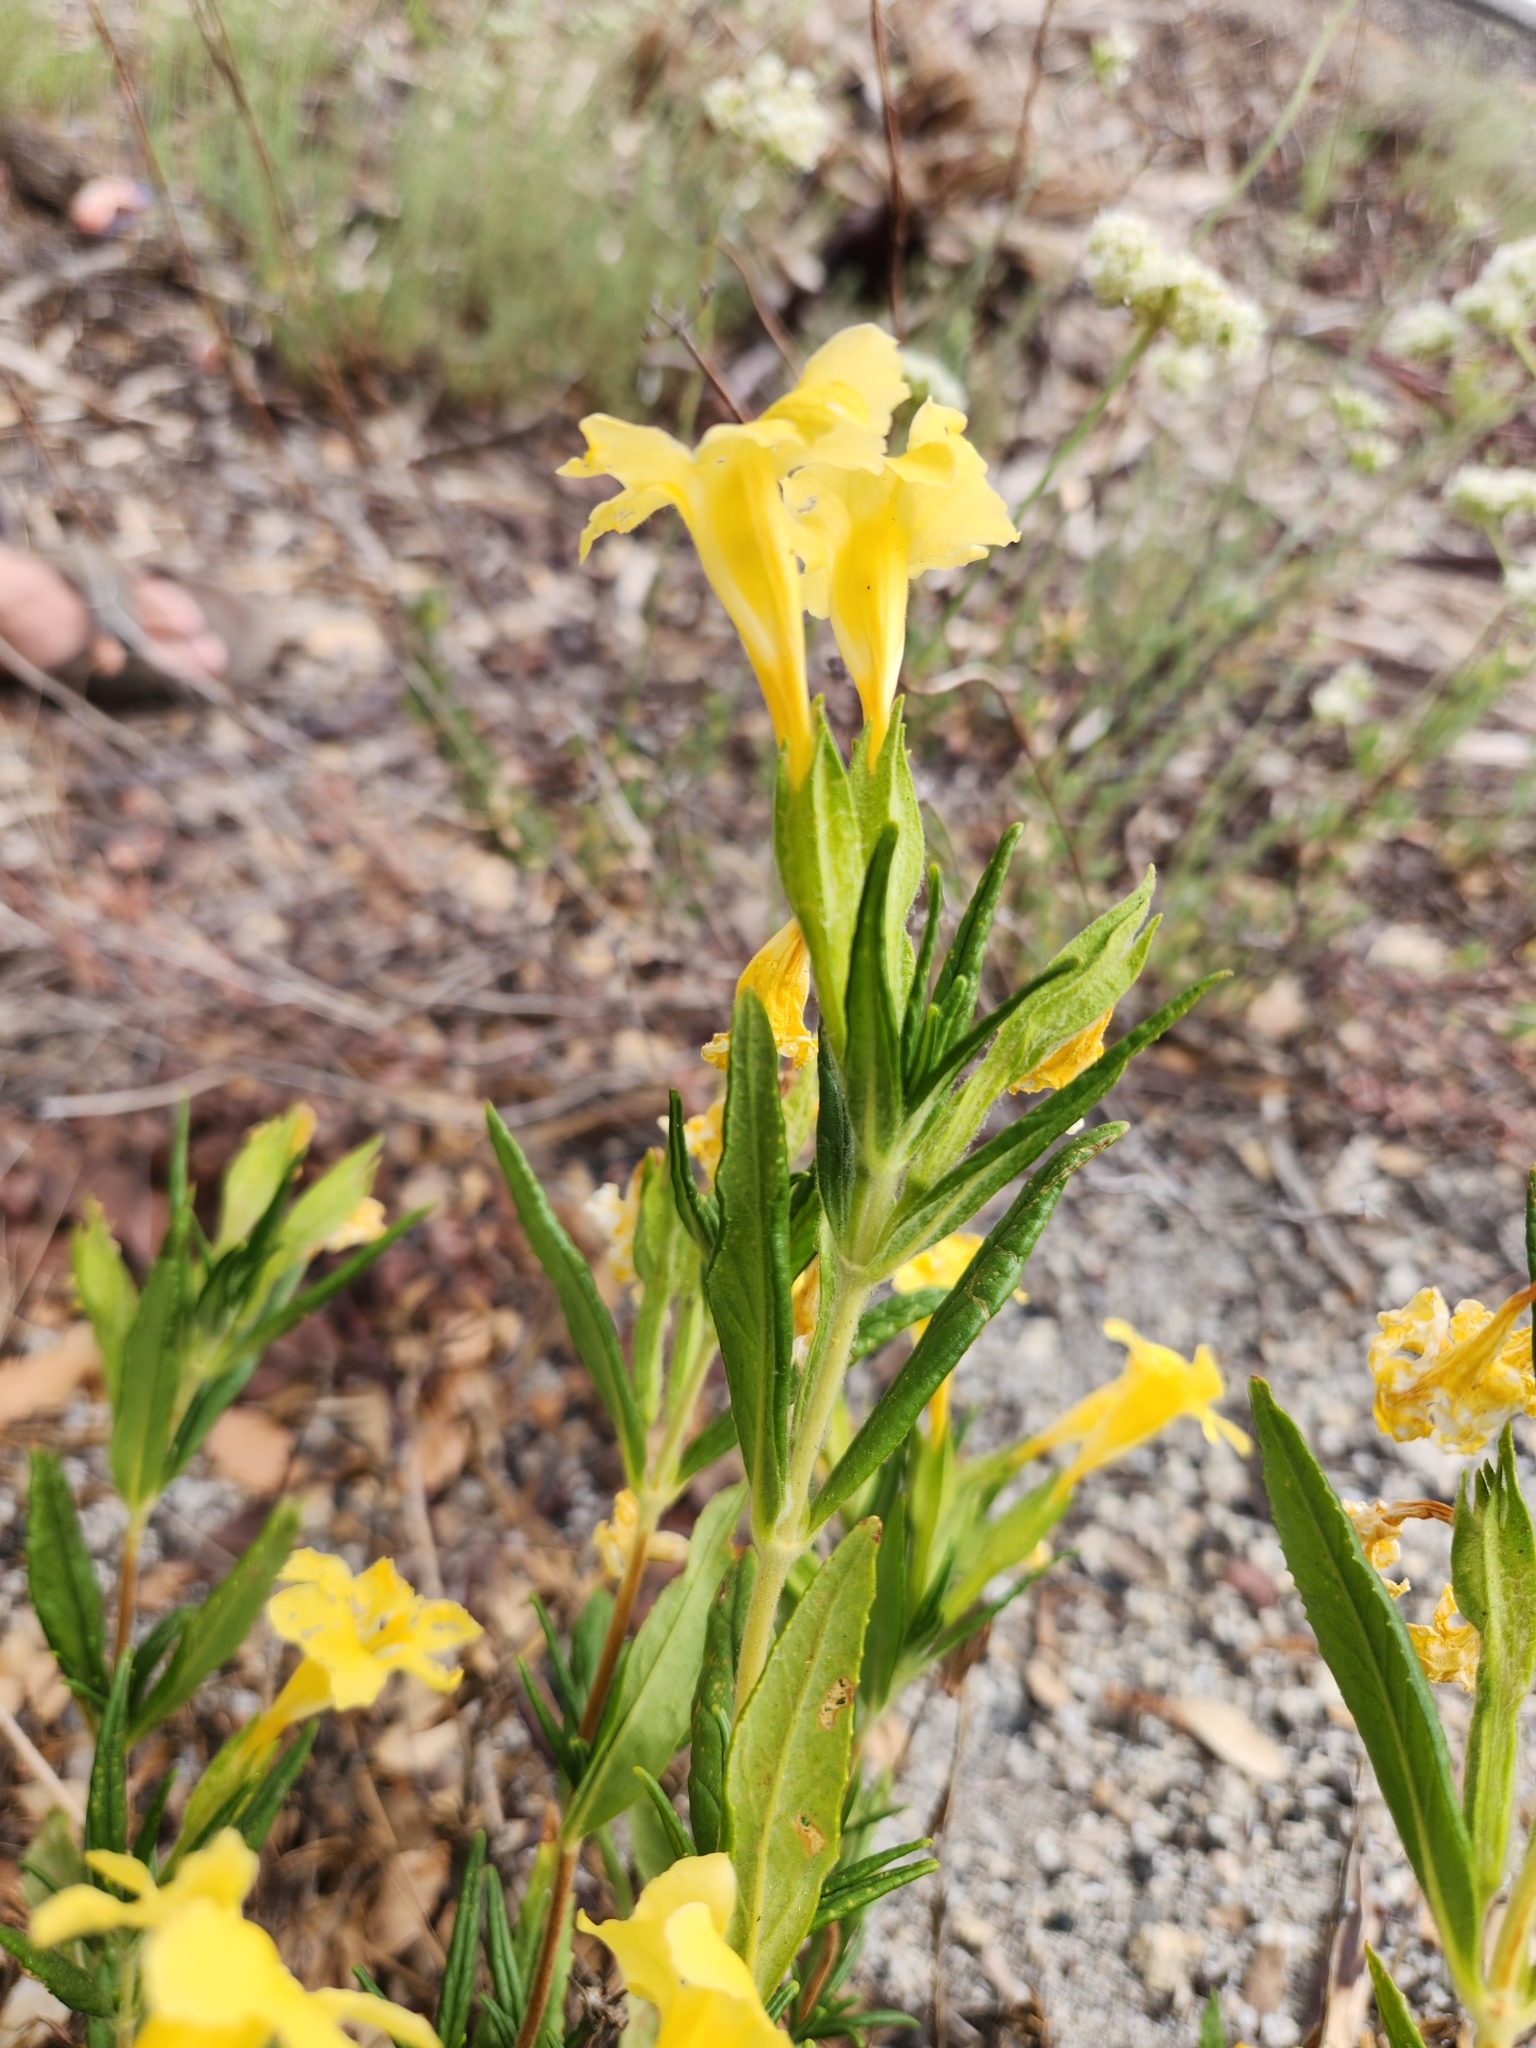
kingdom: Plantae
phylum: Tracheophyta
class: Magnoliopsida
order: Lamiales
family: Phrymaceae
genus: Diplacus
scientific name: Diplacus calycinus
